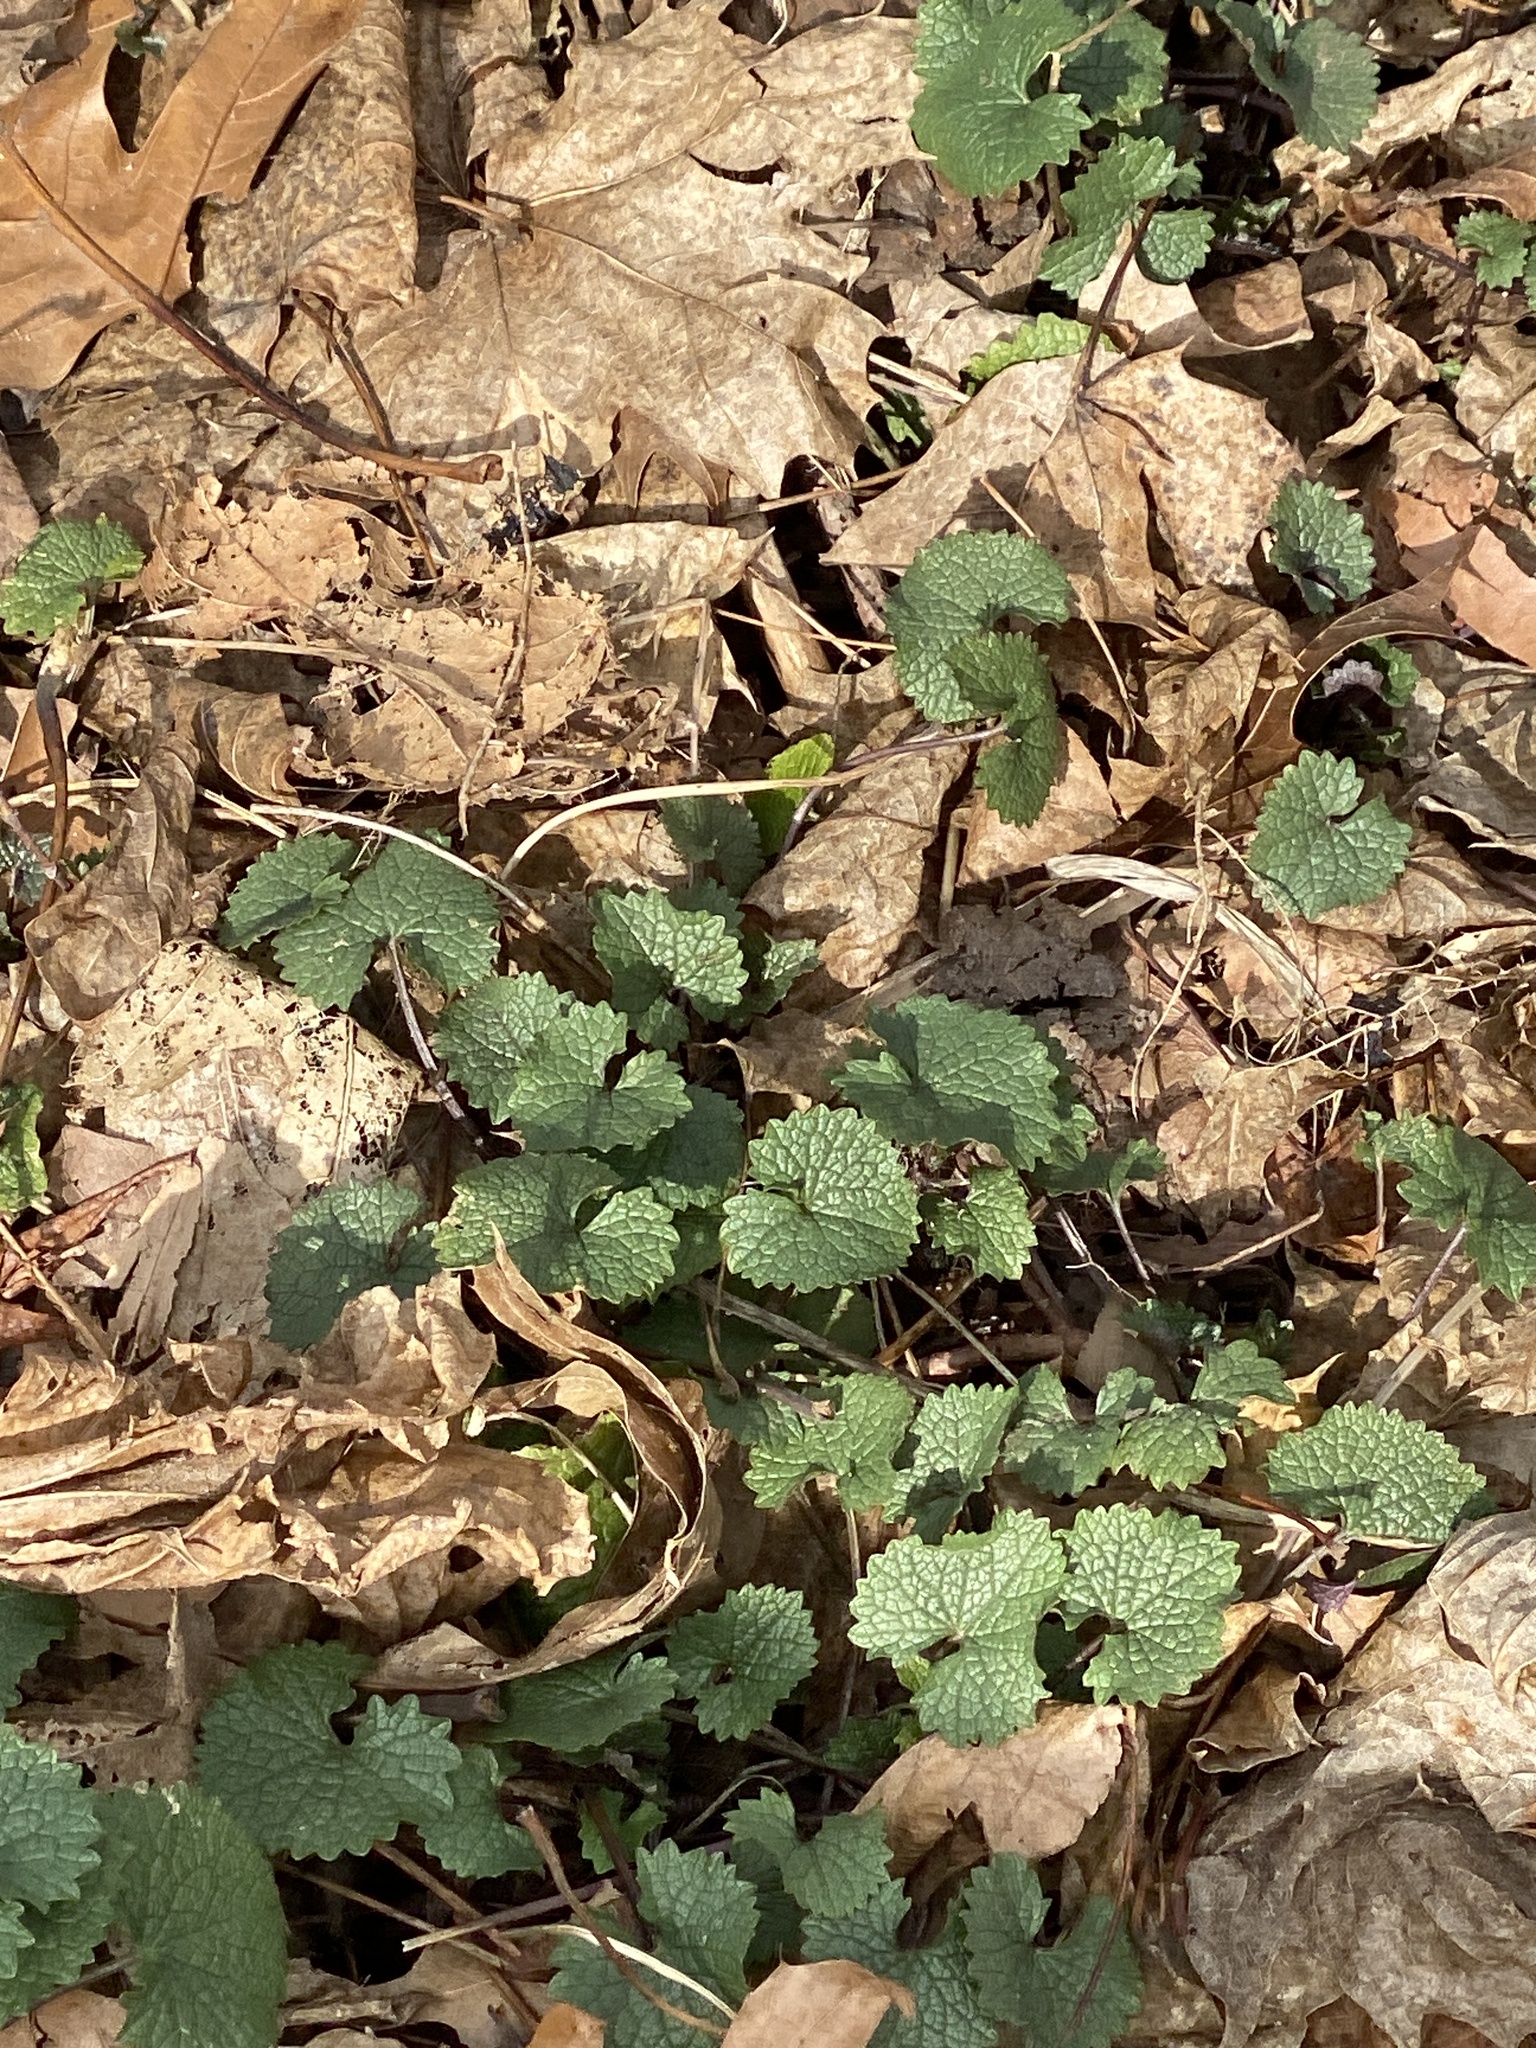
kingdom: Plantae
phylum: Tracheophyta
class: Magnoliopsida
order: Brassicales
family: Brassicaceae
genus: Alliaria
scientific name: Alliaria petiolata
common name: Garlic mustard
